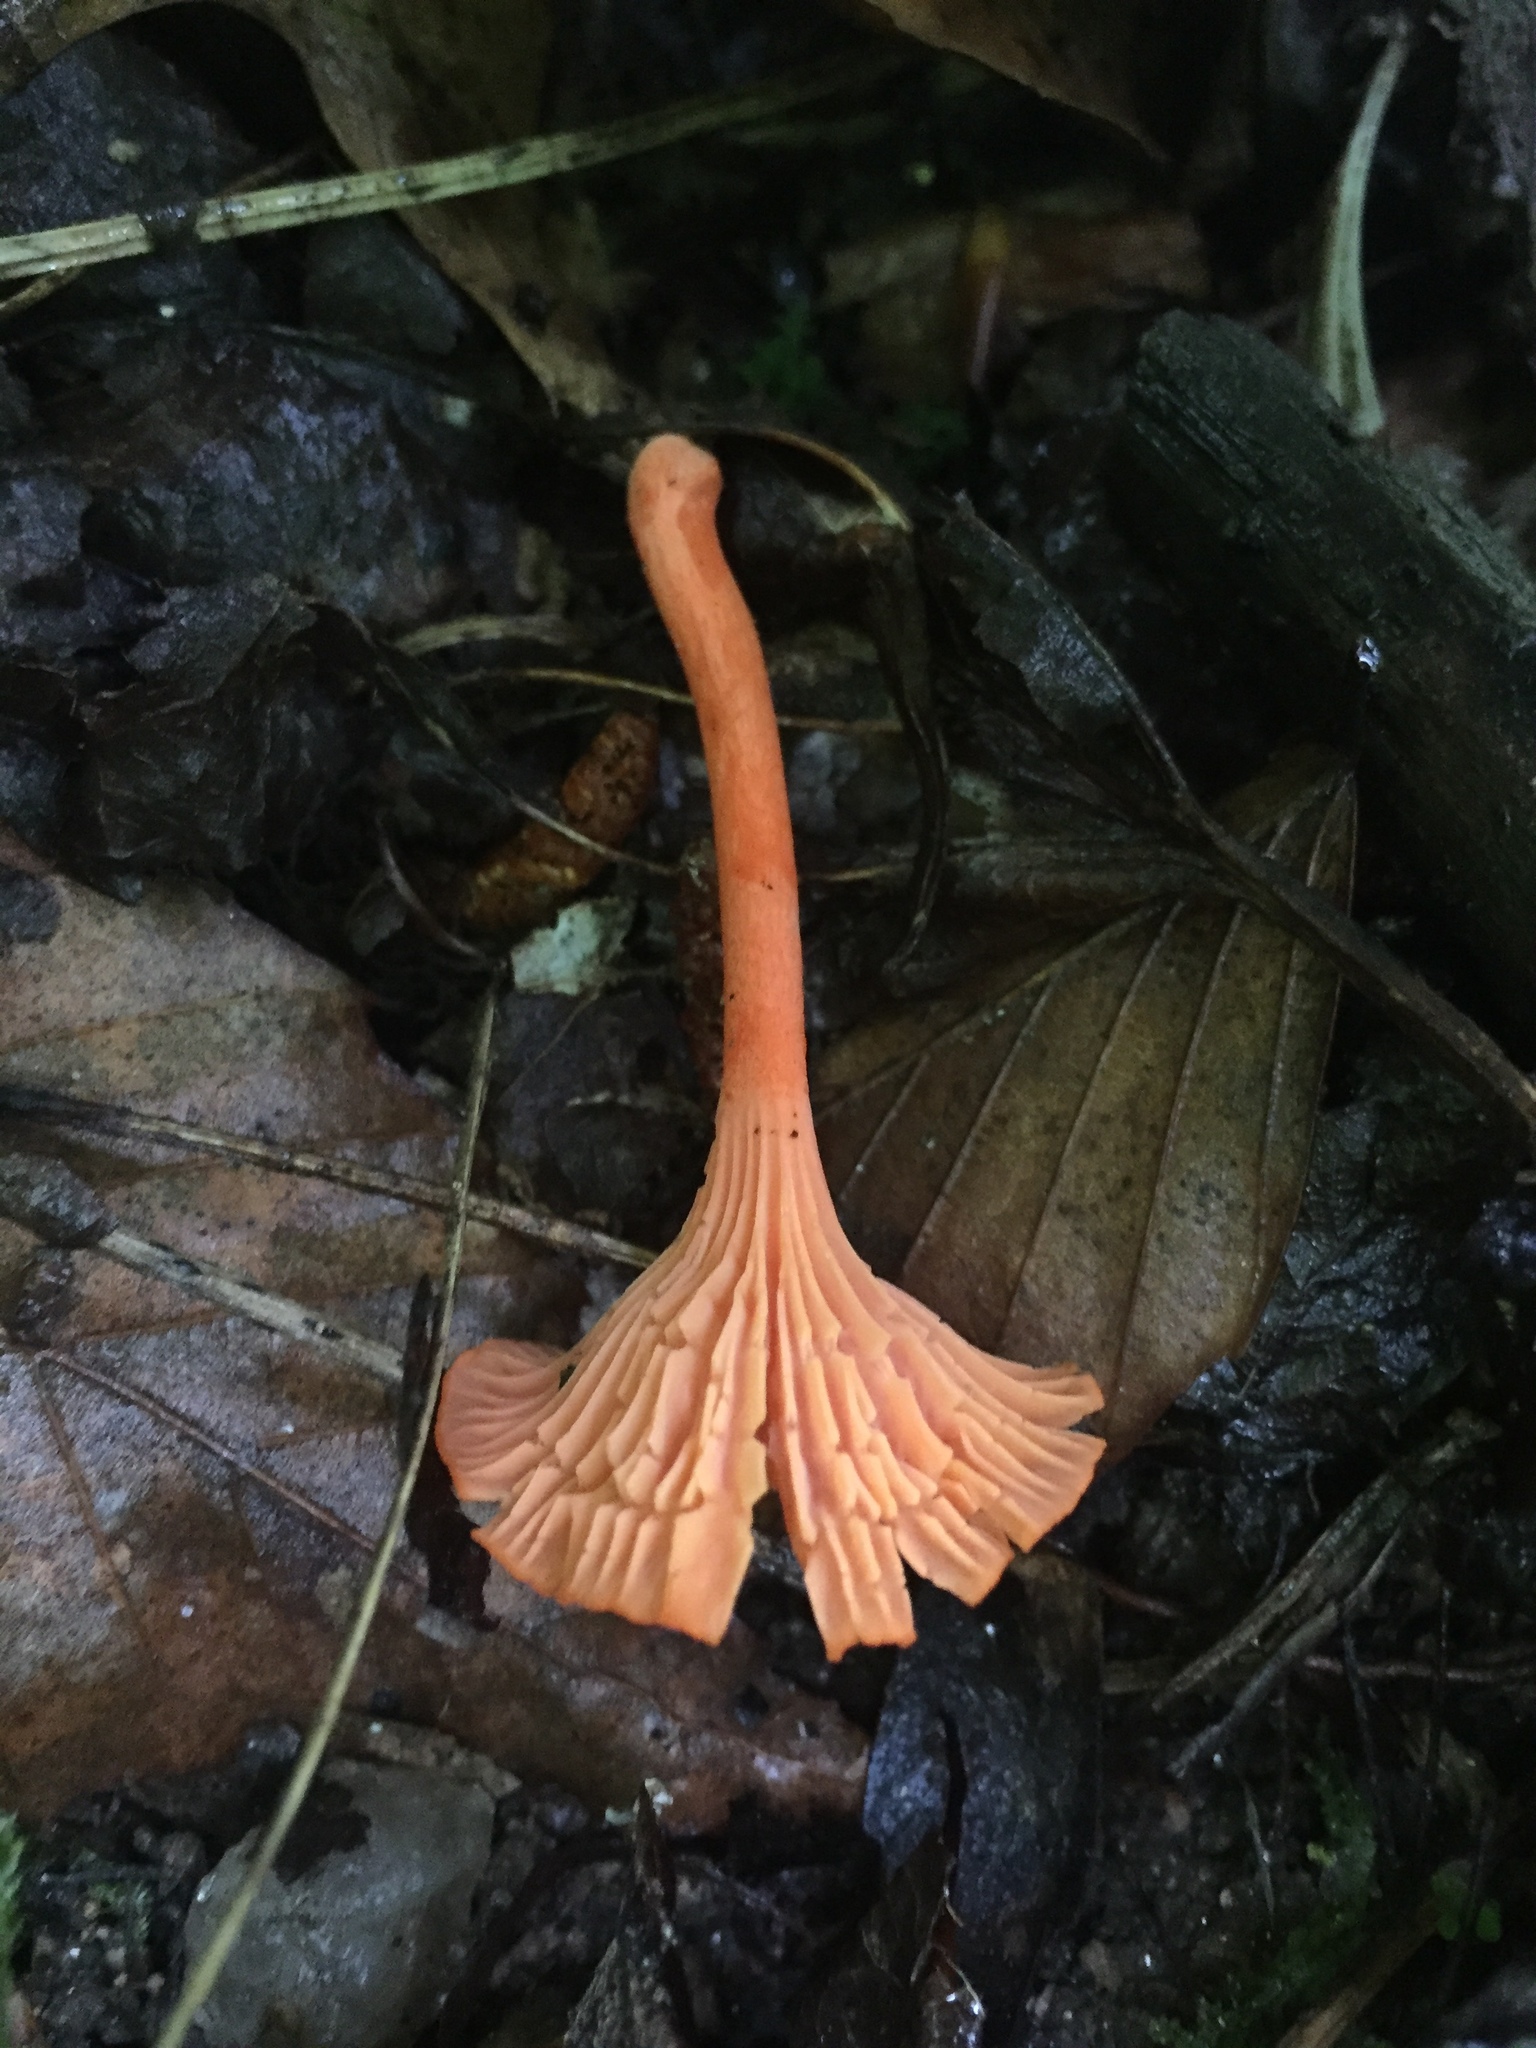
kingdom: Fungi
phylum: Basidiomycota
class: Agaricomycetes
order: Cantharellales
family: Hydnaceae
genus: Cantharellus
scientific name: Cantharellus cinnabarinus
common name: Cinnabar chanterelle
